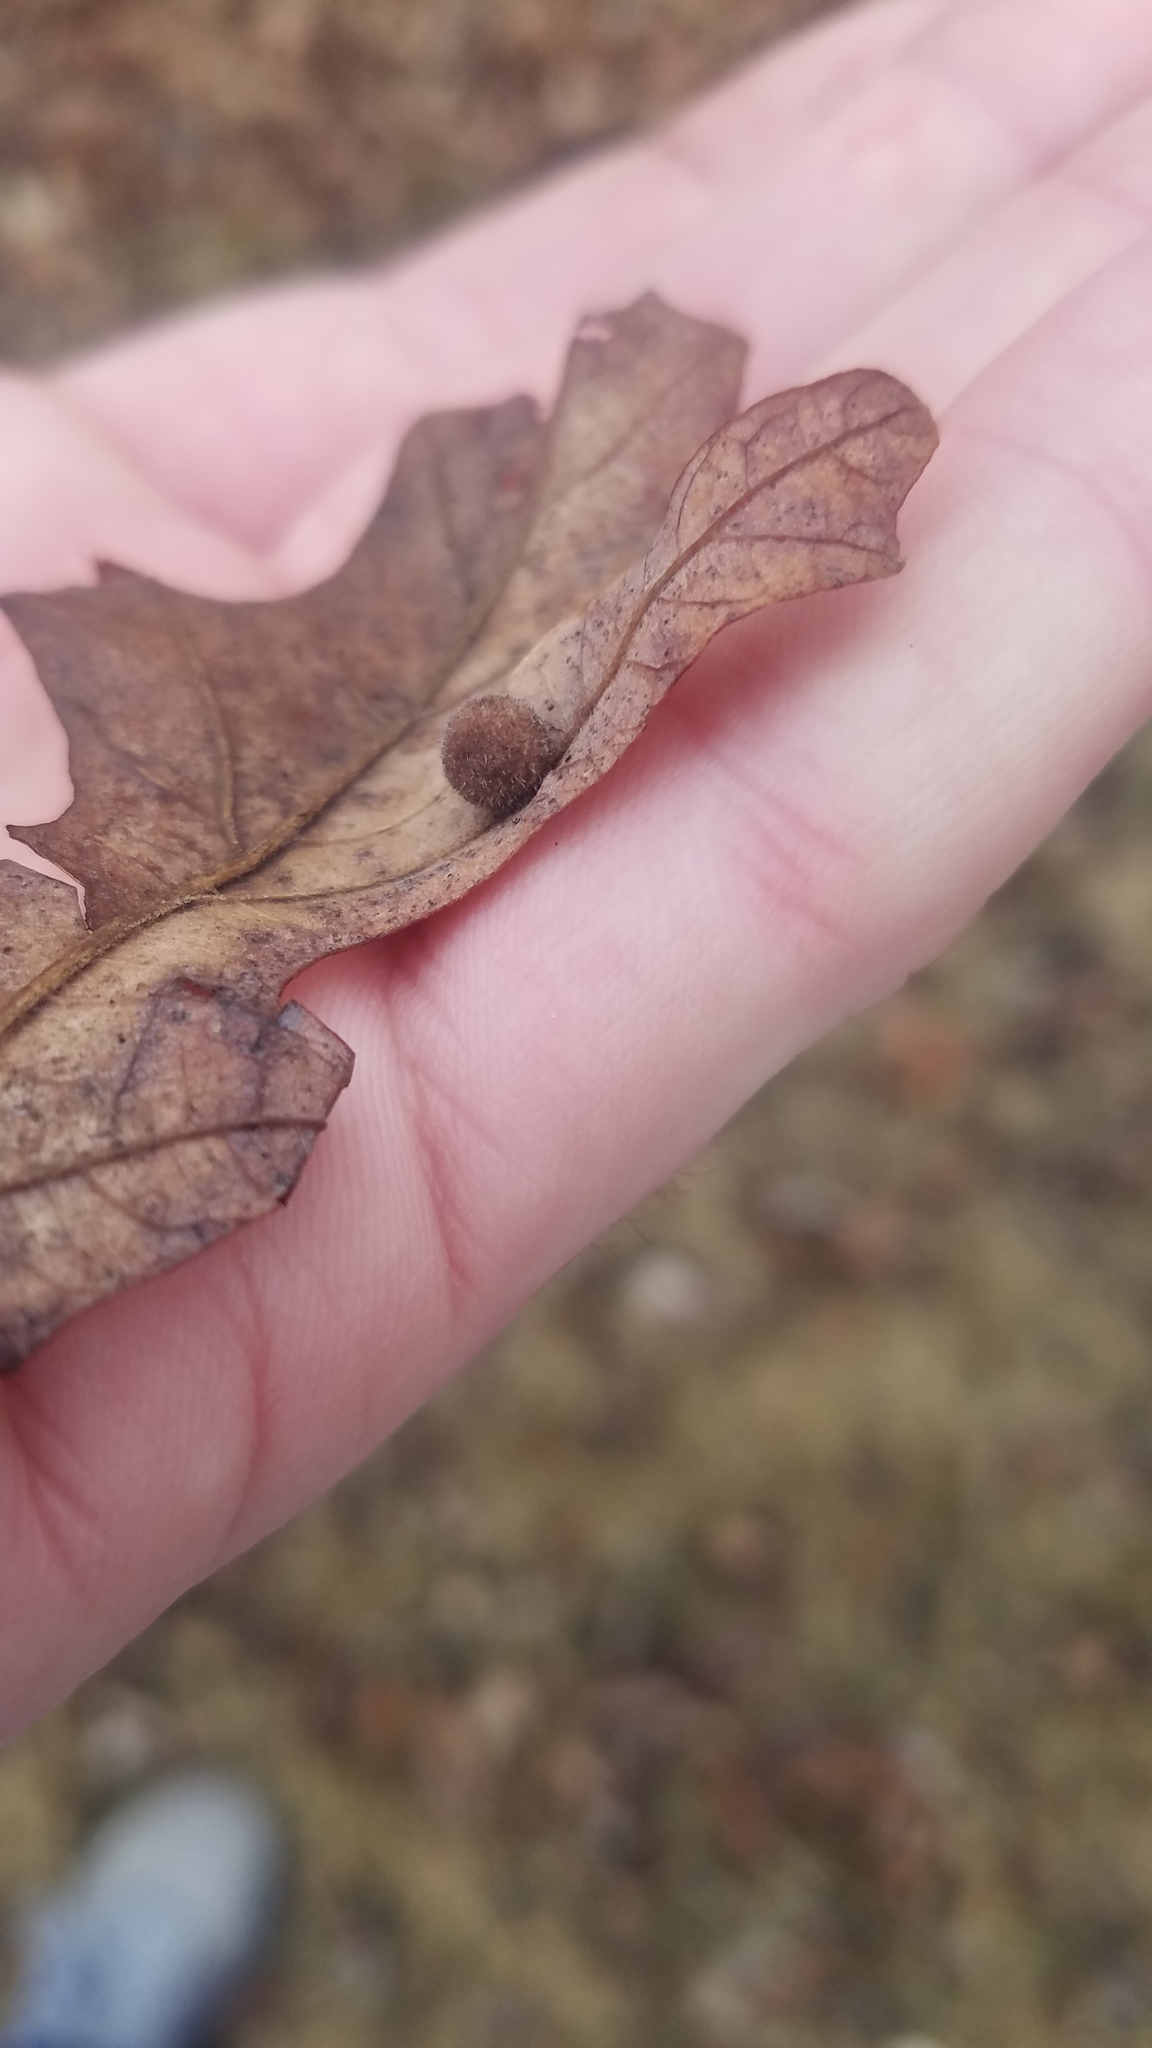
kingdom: Animalia
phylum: Arthropoda
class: Insecta
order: Hymenoptera
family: Cynipidae
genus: Philonix
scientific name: Philonix fulvicollis
